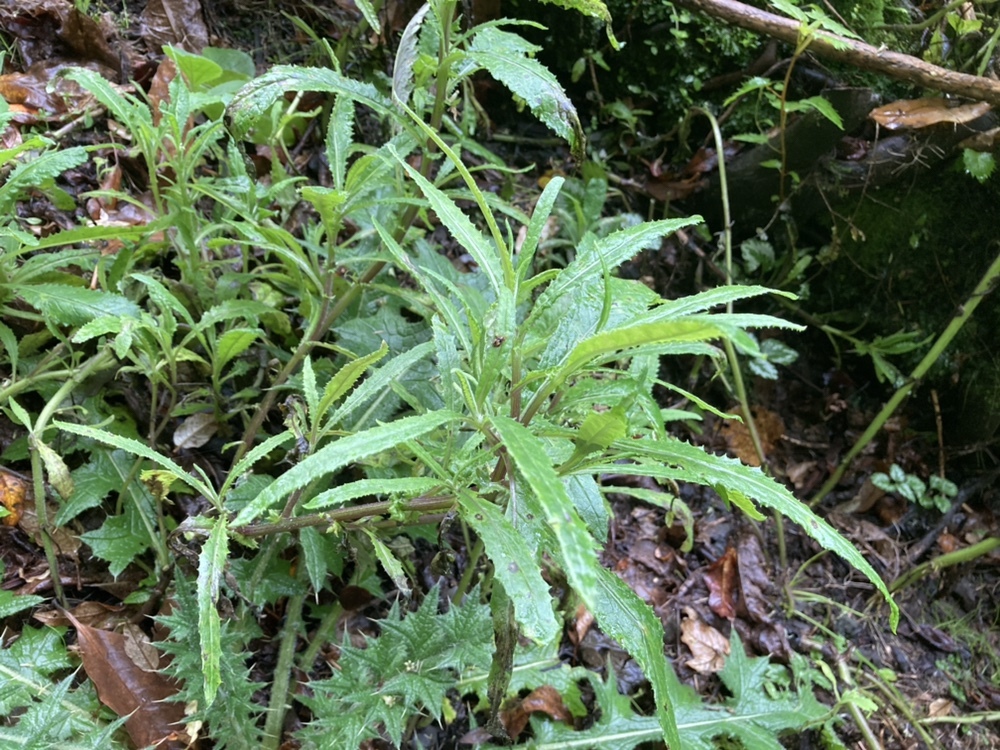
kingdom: Plantae
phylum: Tracheophyta
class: Magnoliopsida
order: Asterales
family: Asteraceae
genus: Senecio
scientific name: Senecio minimus
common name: Toothed fireweed
